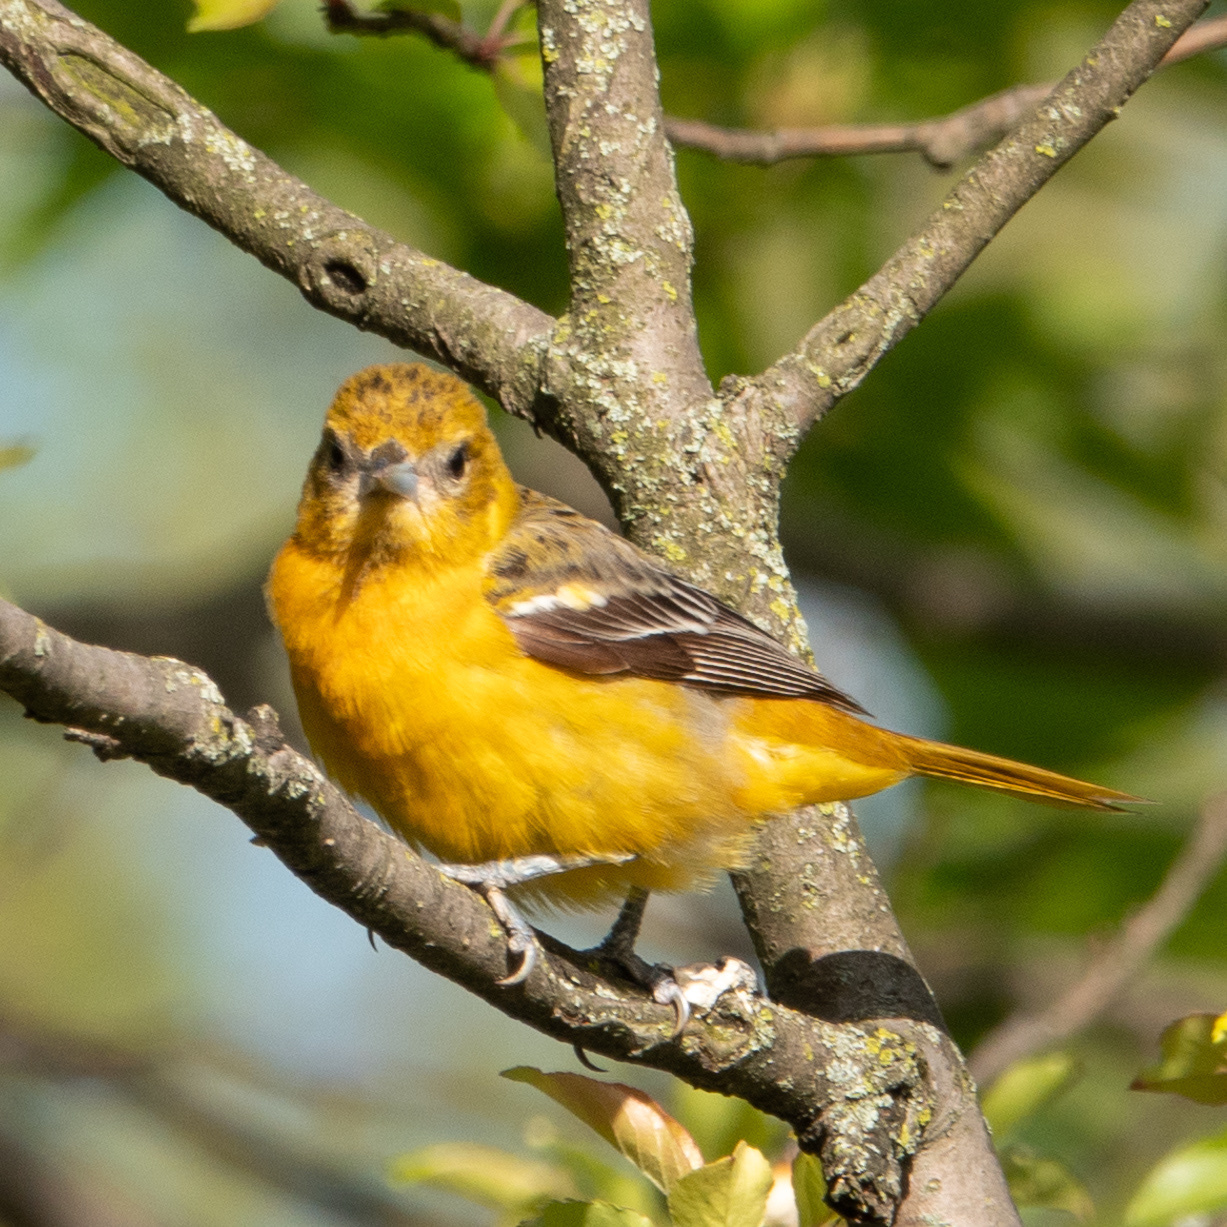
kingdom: Animalia
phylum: Chordata
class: Aves
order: Passeriformes
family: Icteridae
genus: Icterus
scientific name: Icterus galbula
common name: Baltimore oriole
